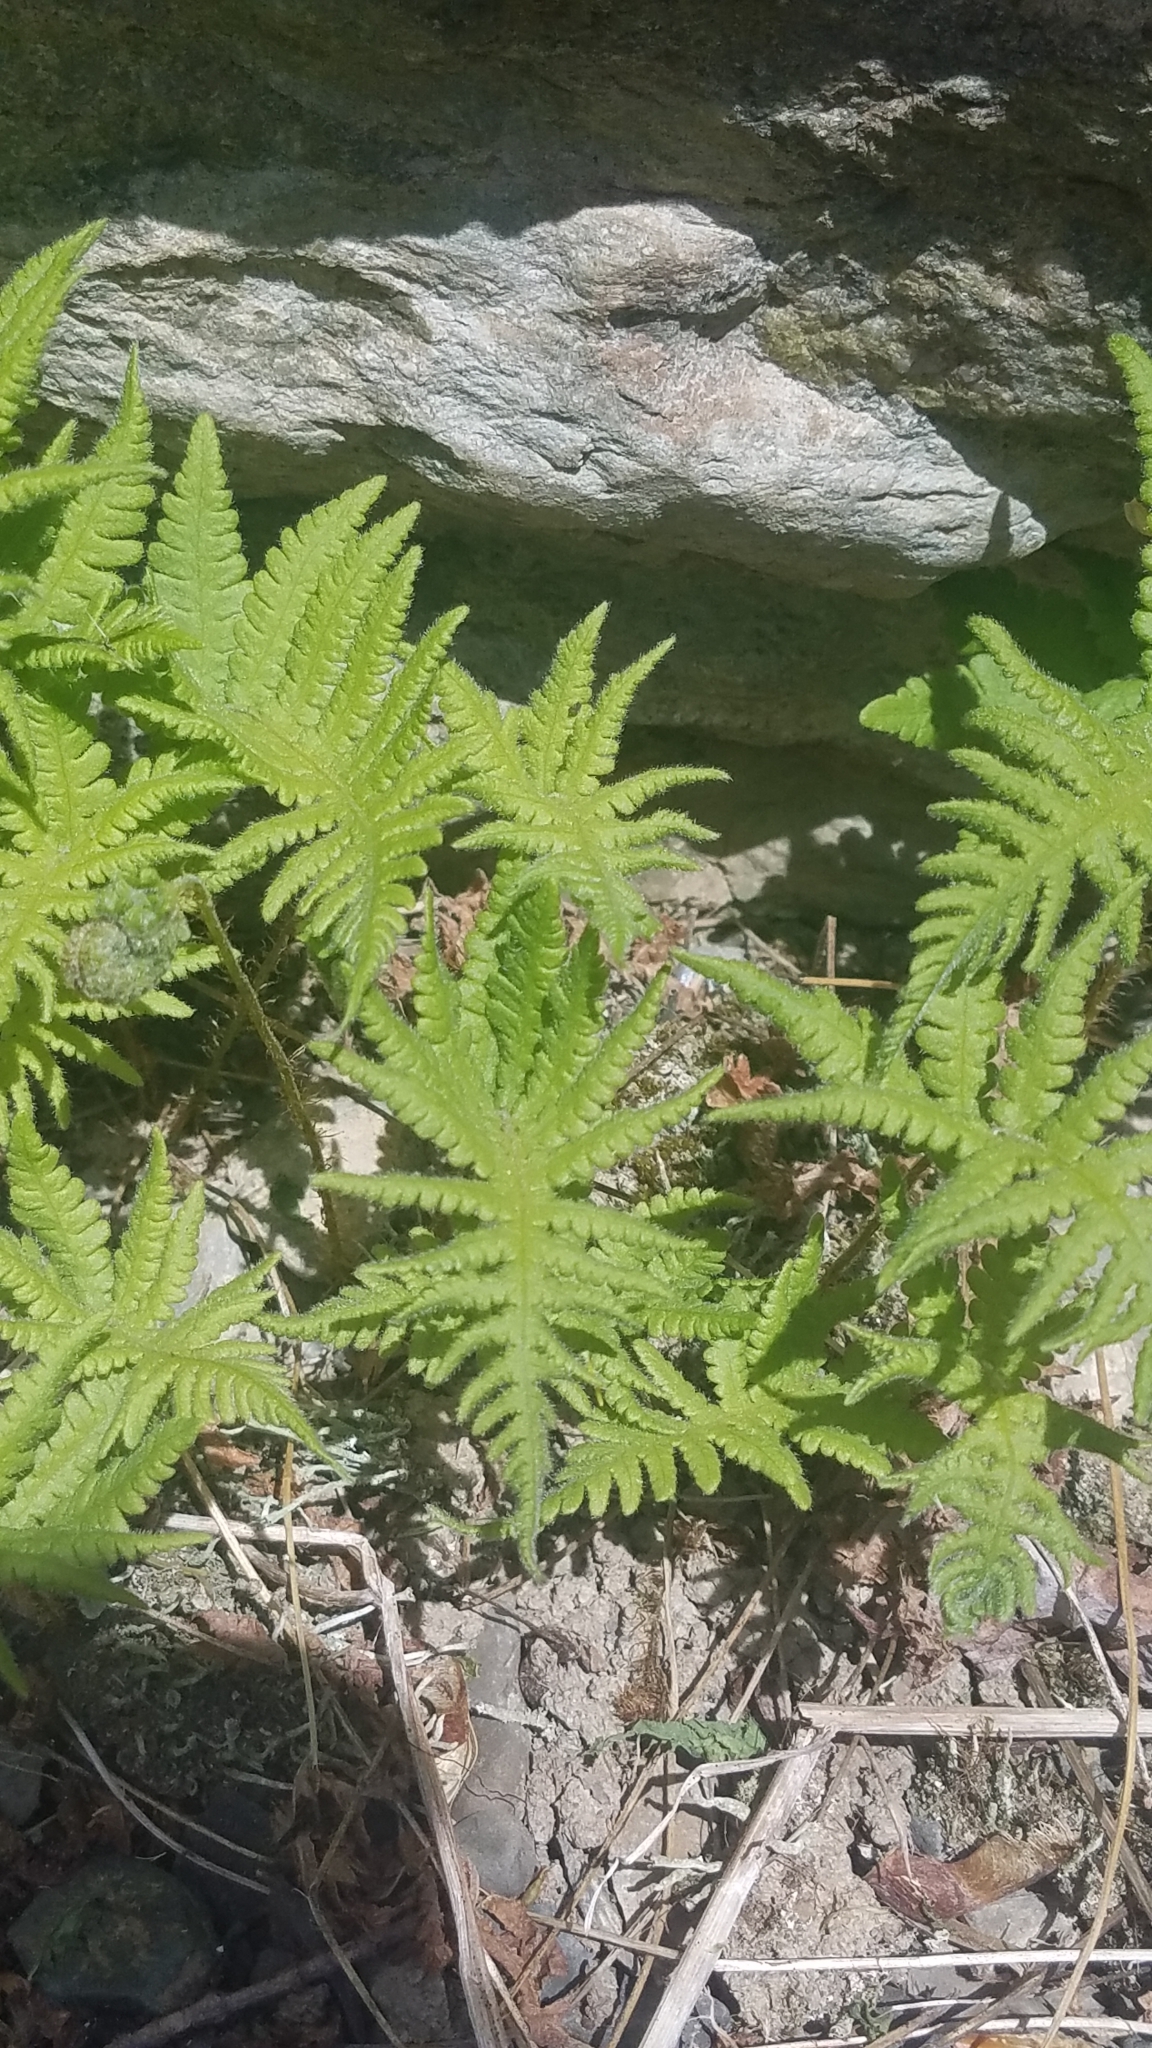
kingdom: Plantae
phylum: Tracheophyta
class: Polypodiopsida
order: Polypodiales
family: Thelypteridaceae
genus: Phegopteris
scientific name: Phegopteris connectilis
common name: Beech fern
